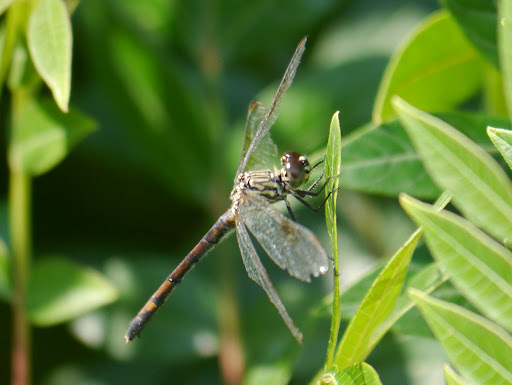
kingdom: Animalia
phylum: Arthropoda
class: Insecta
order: Odonata
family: Libellulidae
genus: Erythrodiplax
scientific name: Erythrodiplax berenice
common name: Seaside dragonlet
